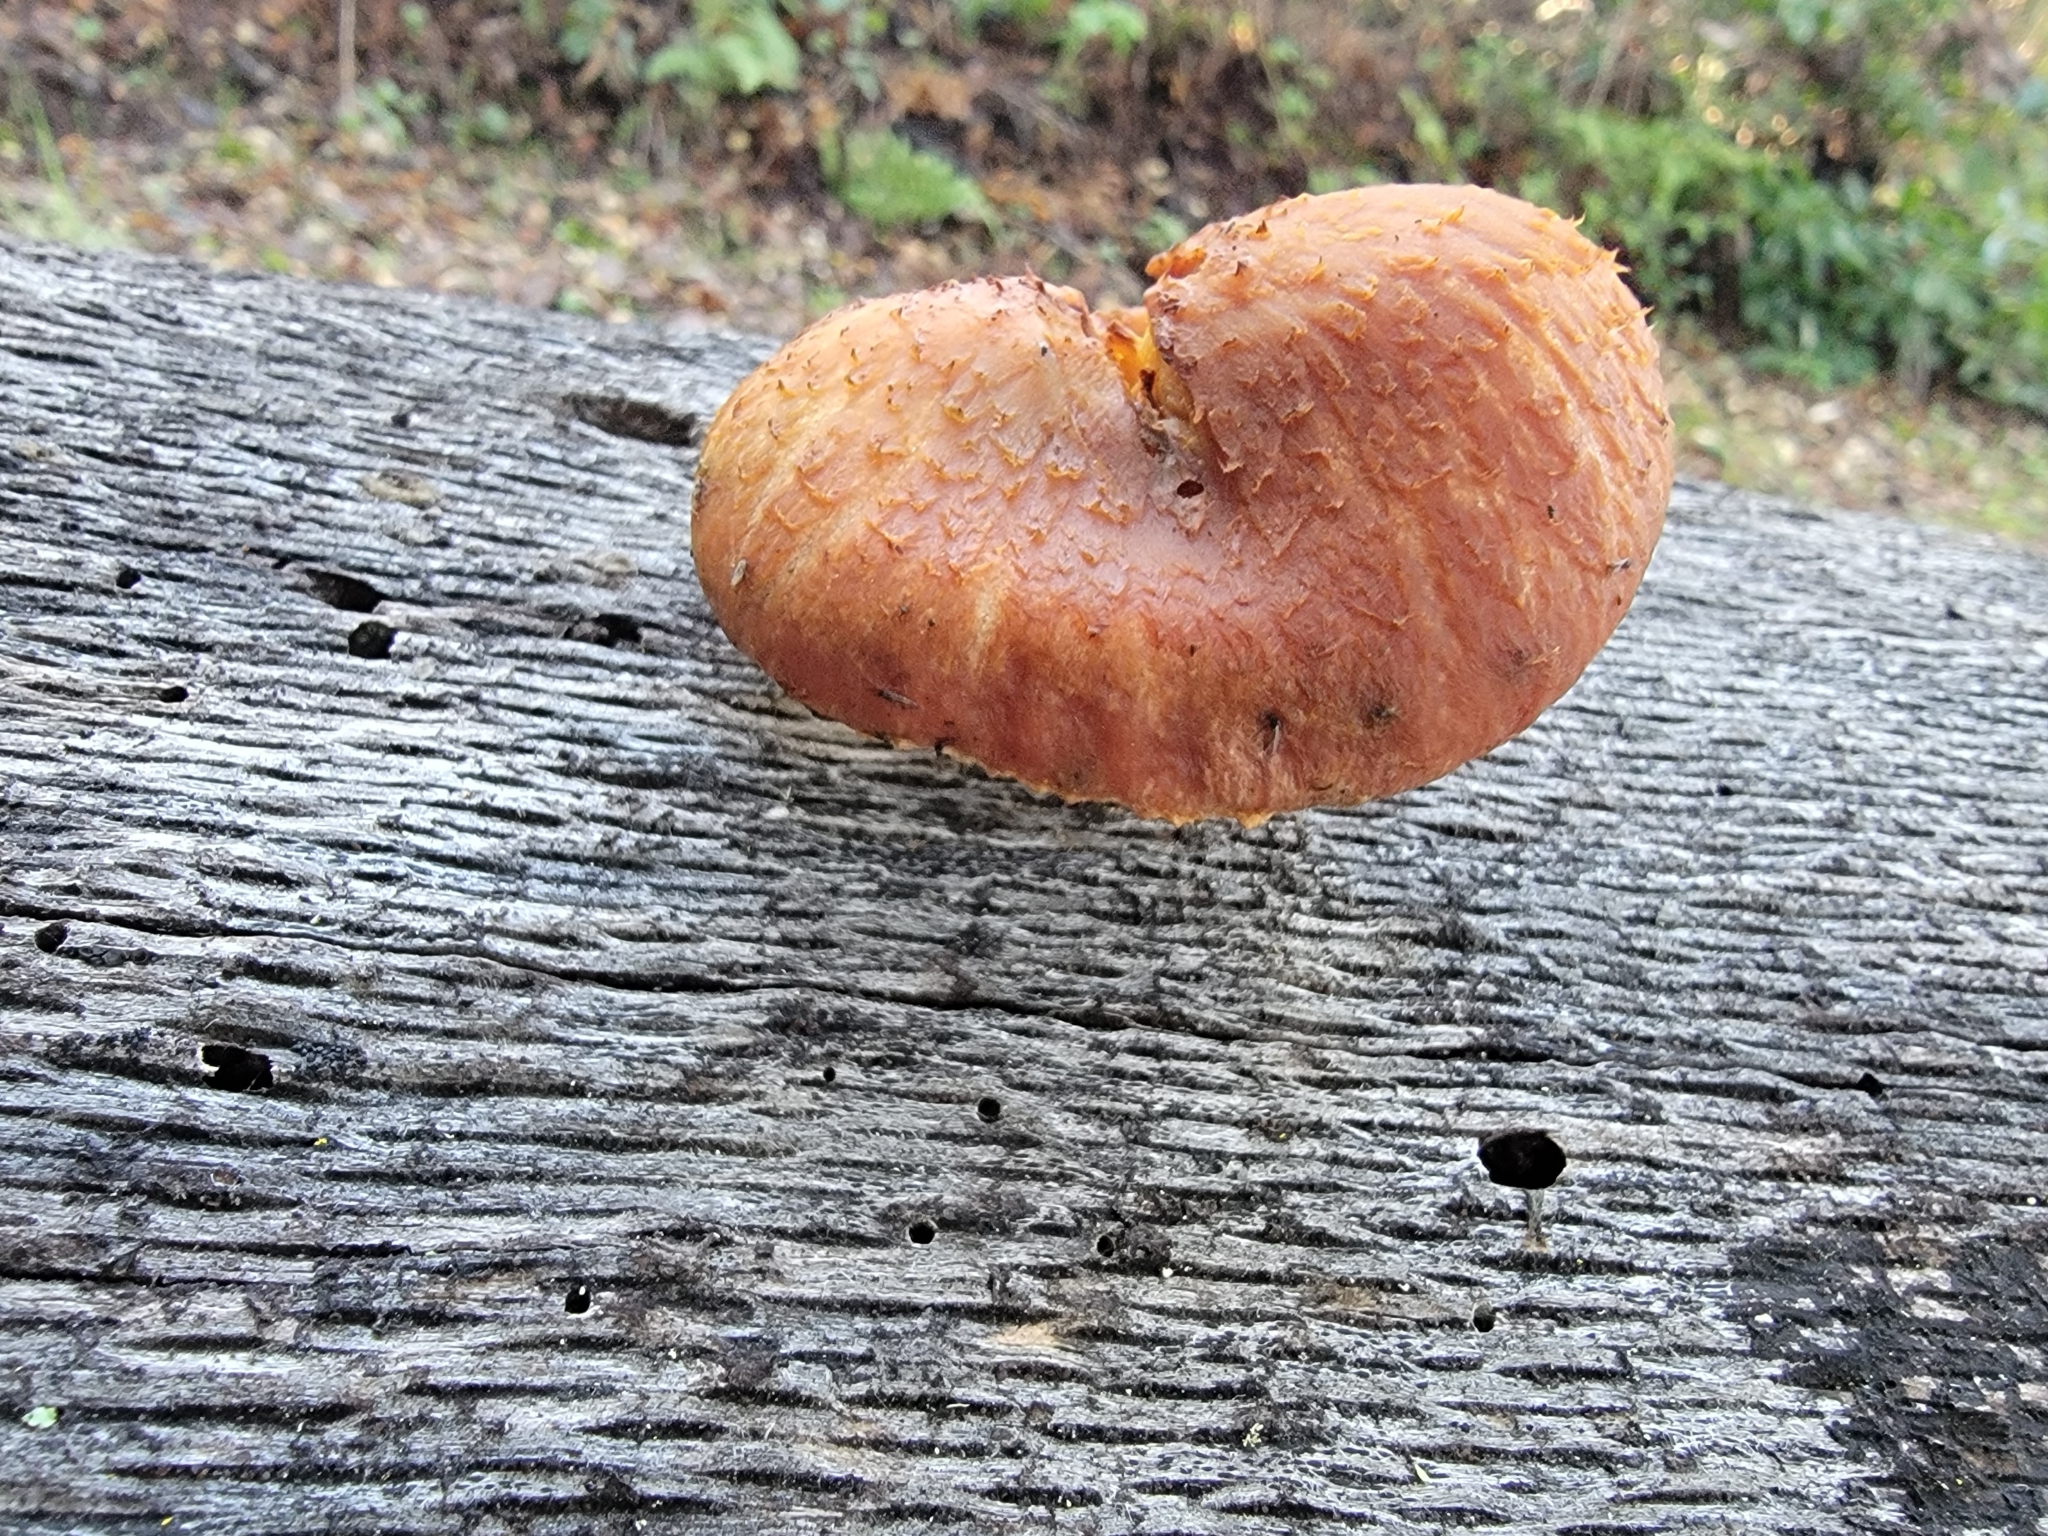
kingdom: Fungi
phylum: Basidiomycota
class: Agaricomycetes
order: Agaricales
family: Hymenogastraceae
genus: Gymnopilus
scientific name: Gymnopilus luteofolius
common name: Yellow-gilled gymnopilus
